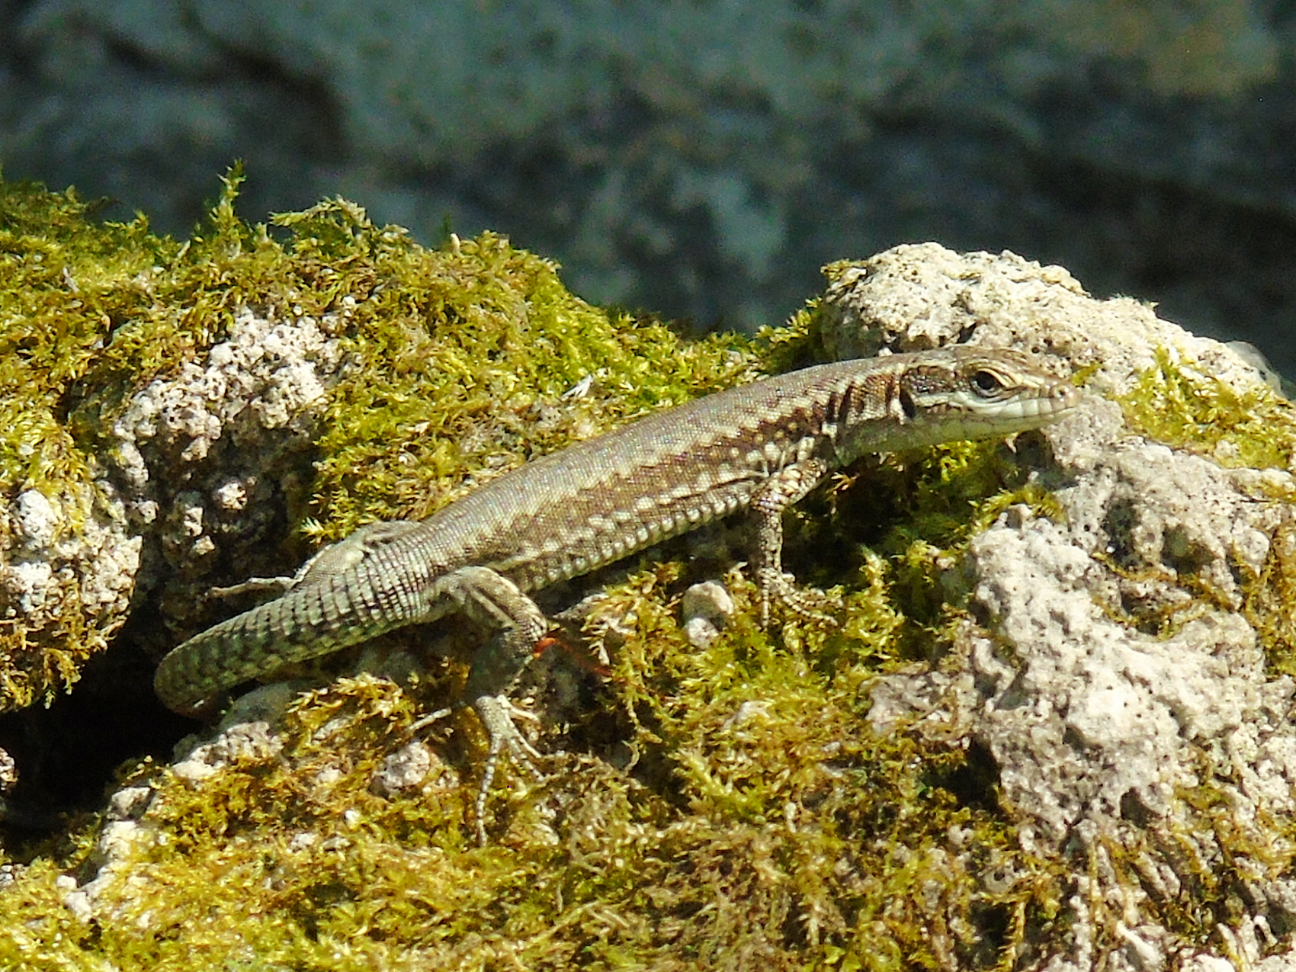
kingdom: Animalia
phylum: Chordata
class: Squamata
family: Lacertidae
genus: Podarcis
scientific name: Podarcis muralis
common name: Common wall lizard
